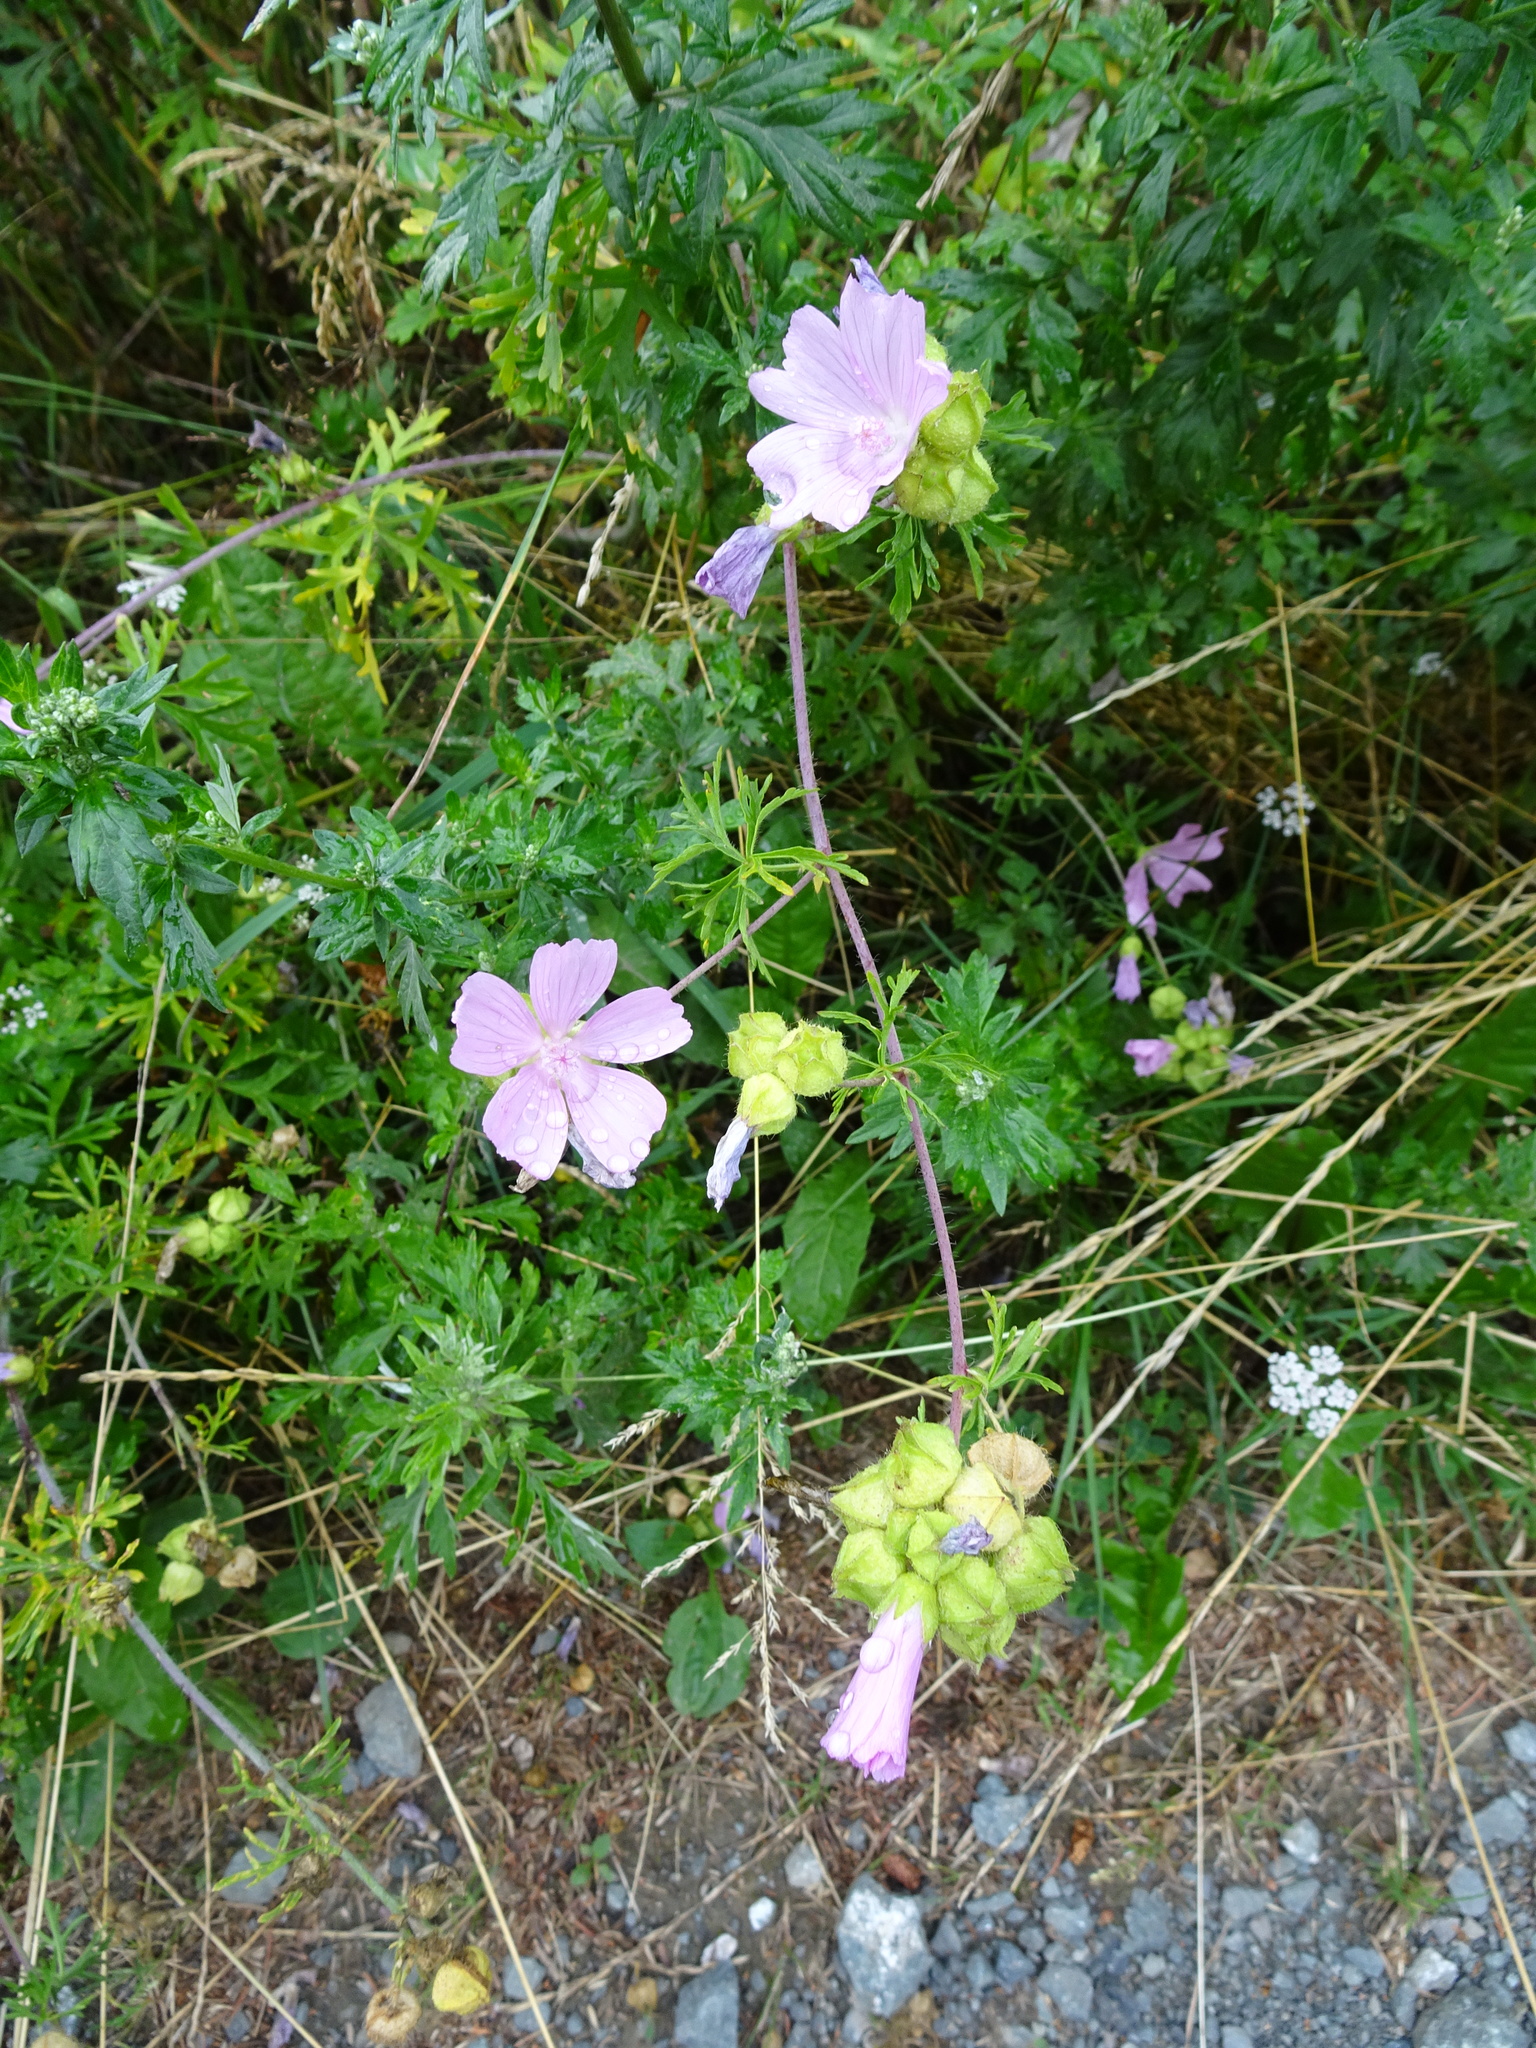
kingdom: Plantae
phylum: Tracheophyta
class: Magnoliopsida
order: Malvales
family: Malvaceae
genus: Malva
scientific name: Malva moschata
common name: Musk mallow
